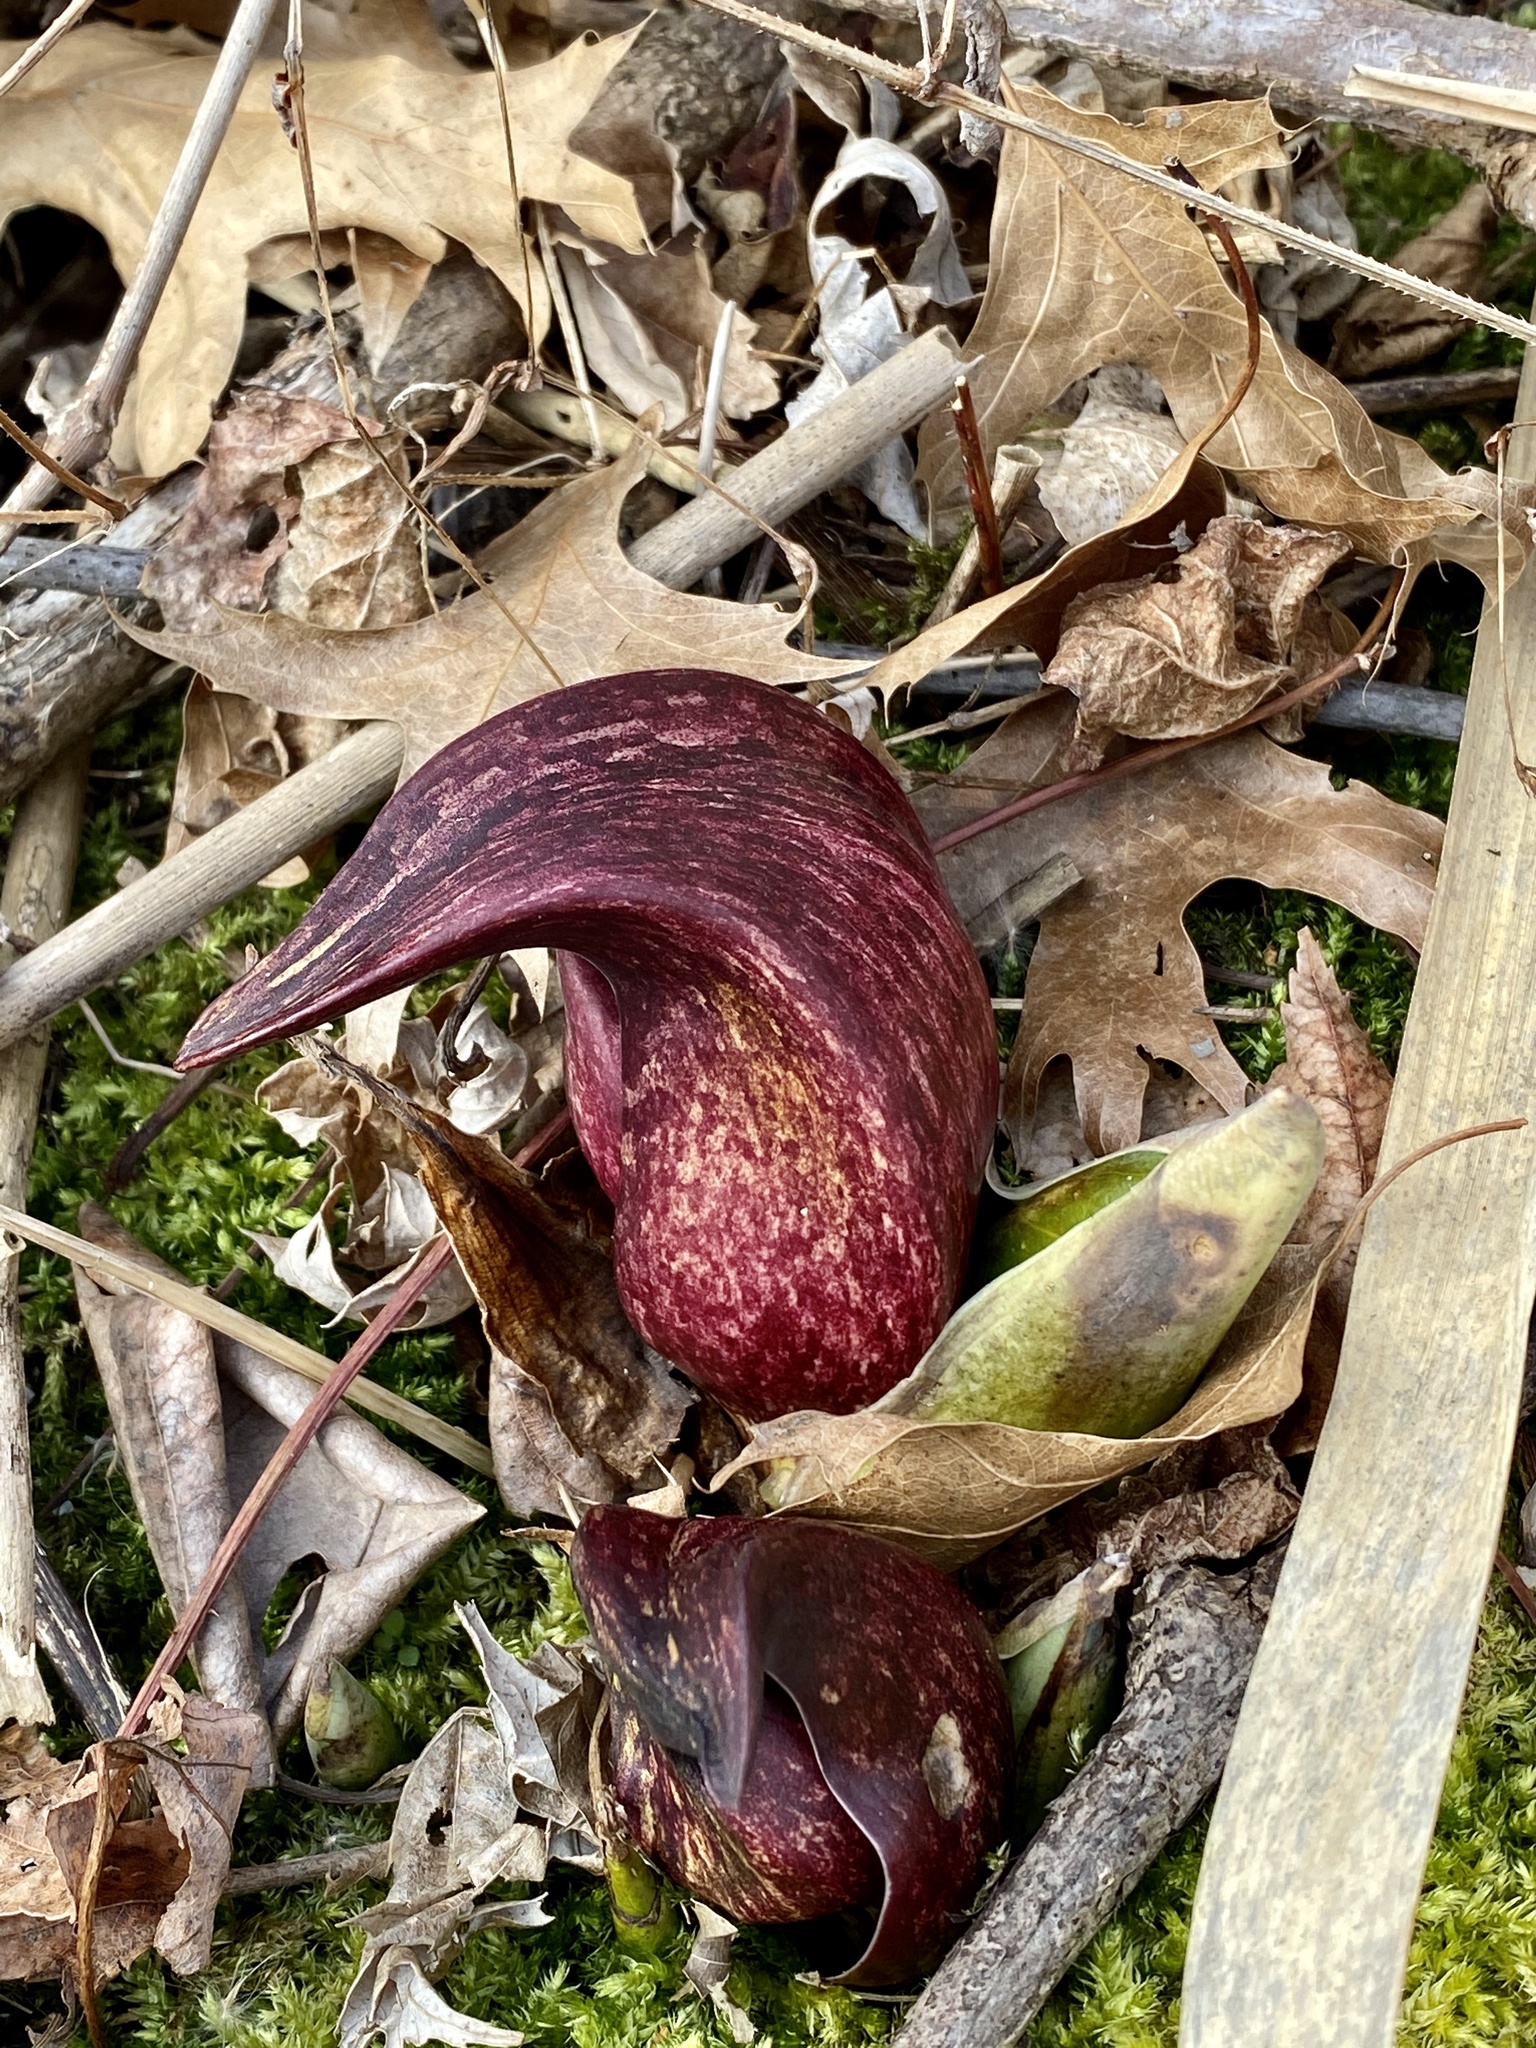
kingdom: Plantae
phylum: Tracheophyta
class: Liliopsida
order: Alismatales
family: Araceae
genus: Symplocarpus
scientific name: Symplocarpus foetidus
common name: Eastern skunk cabbage
